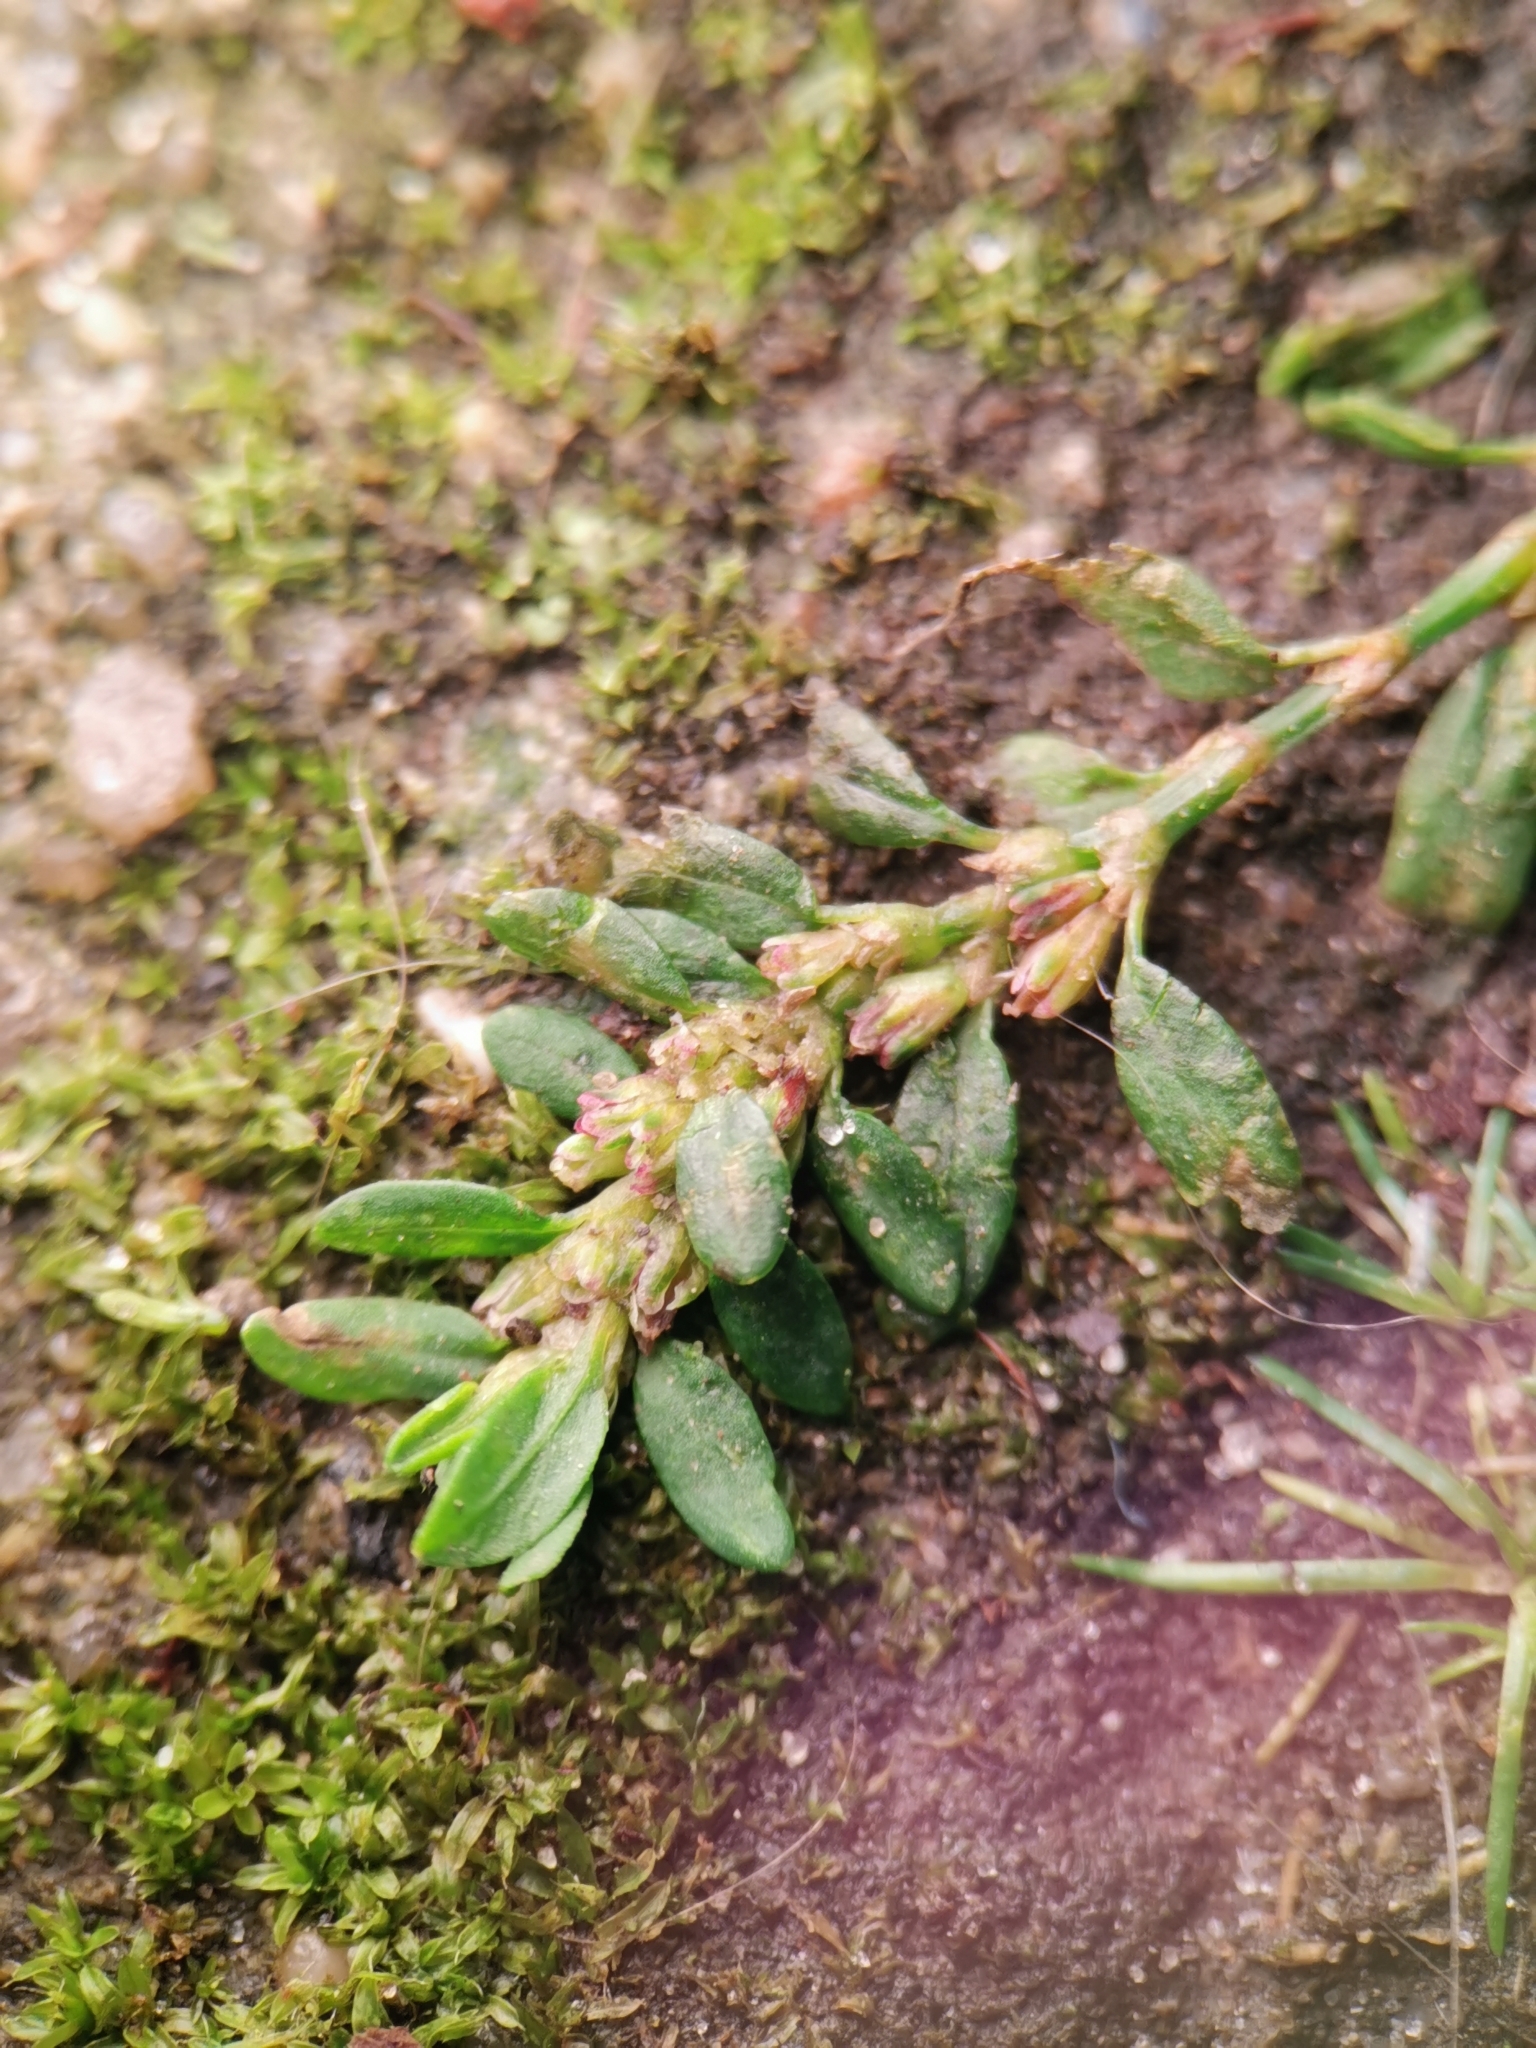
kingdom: Plantae
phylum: Tracheophyta
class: Magnoliopsida
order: Caryophyllales
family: Polygonaceae
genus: Polygonum
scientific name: Polygonum arenastrum
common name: Equal-leaved knotgrass
